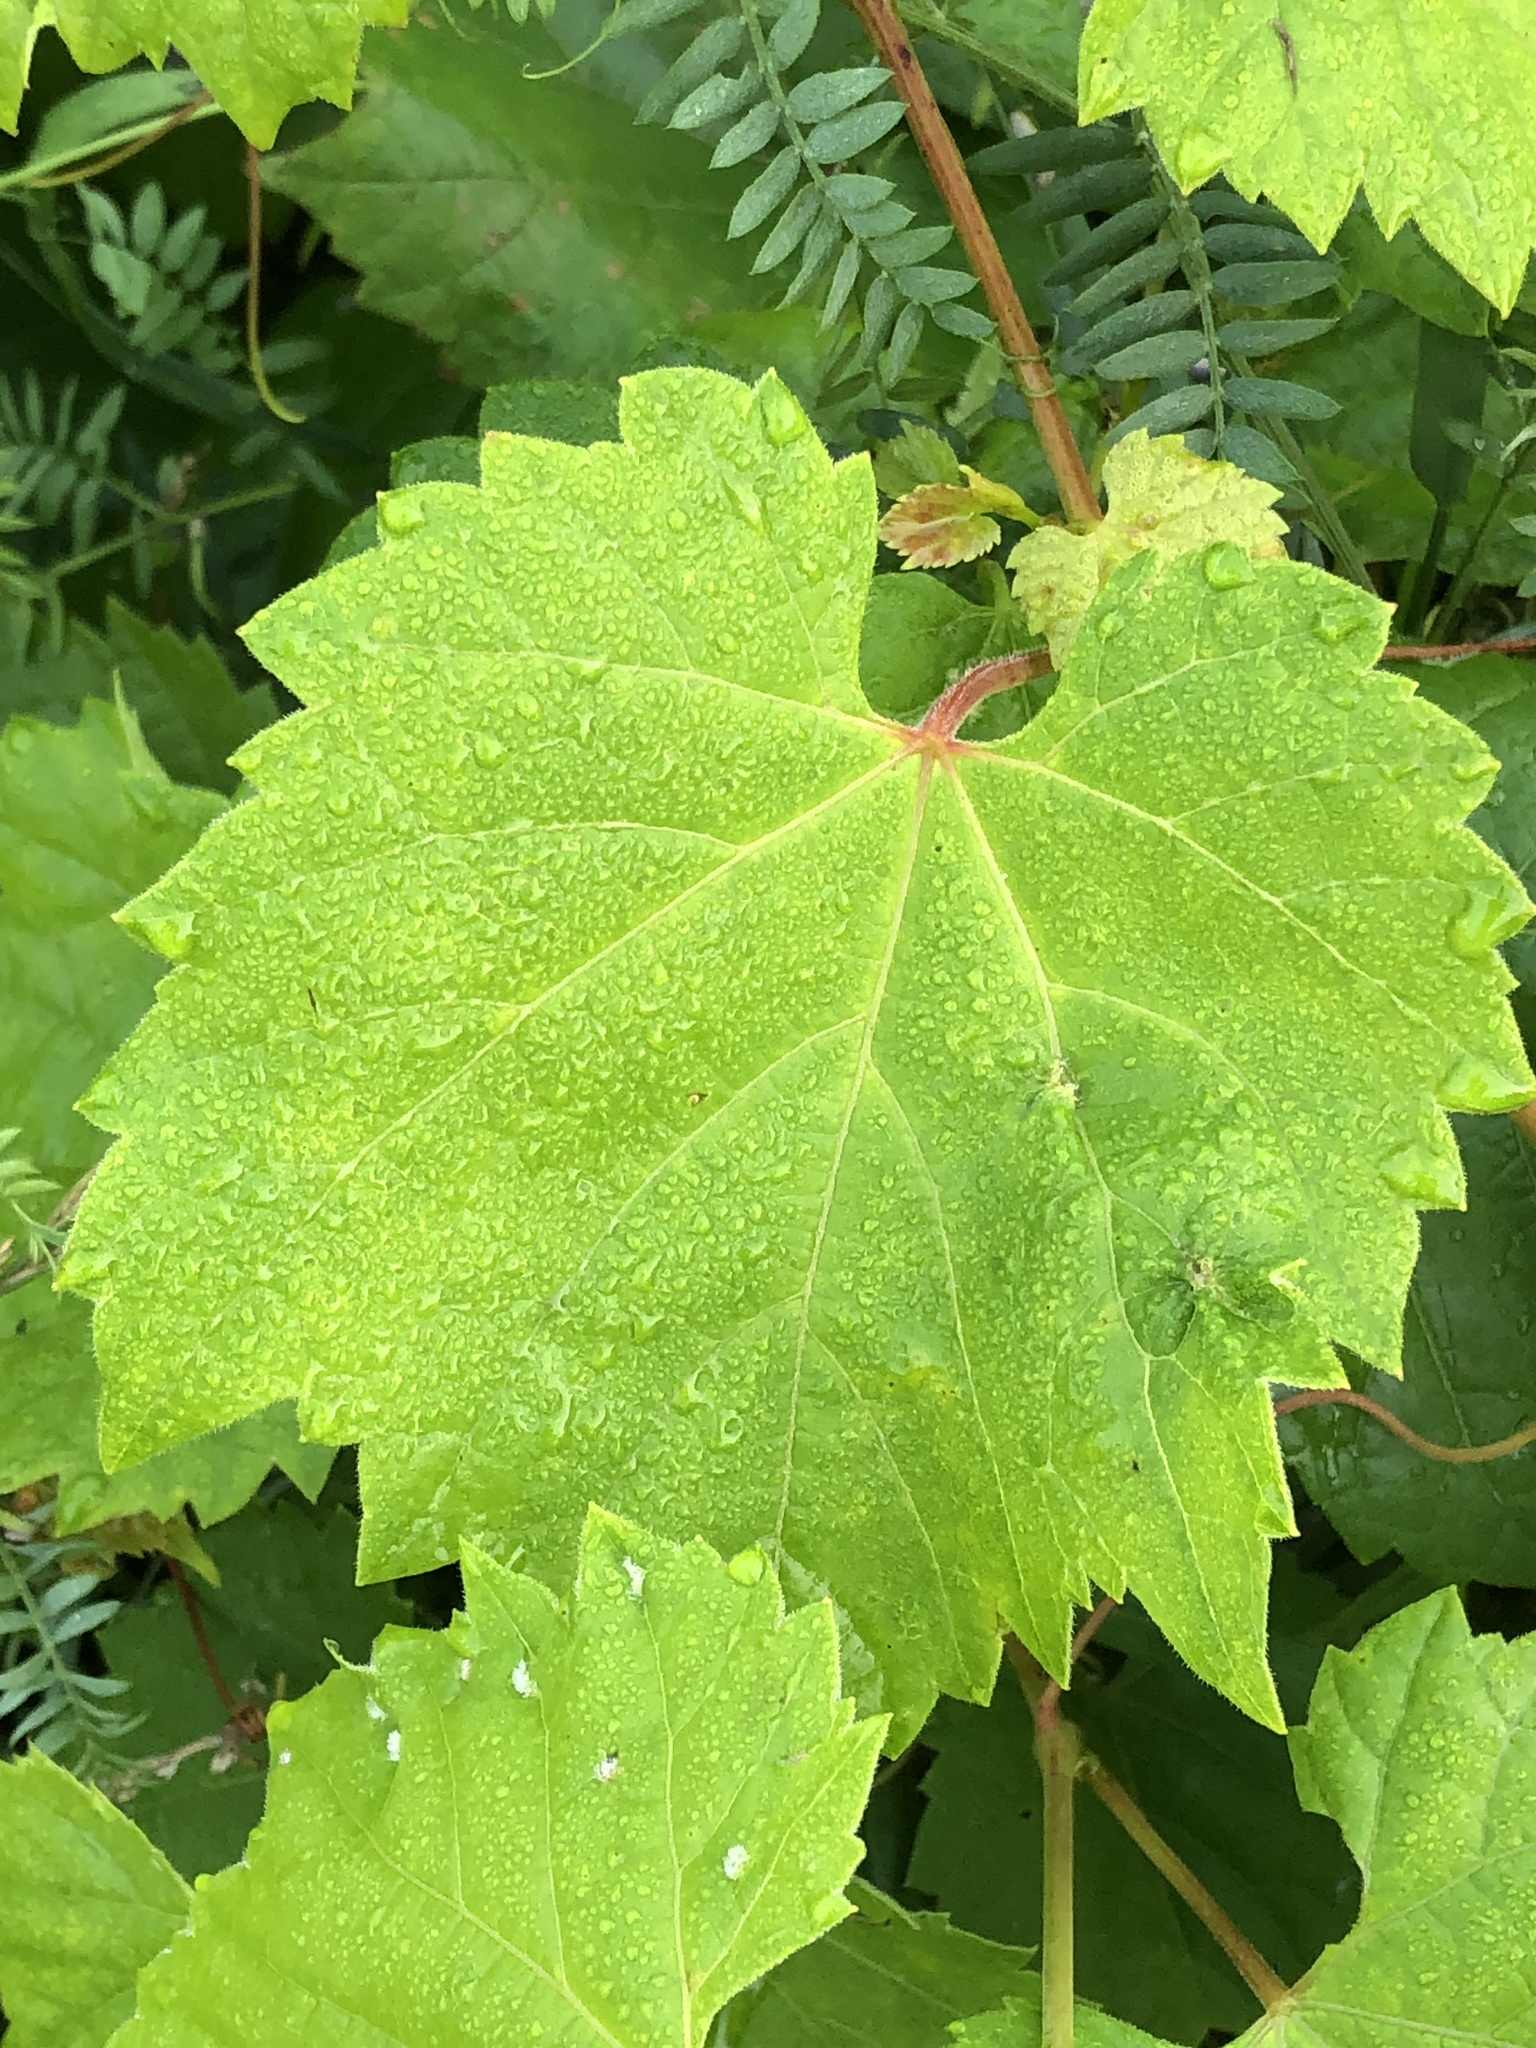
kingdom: Plantae
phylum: Tracheophyta
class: Magnoliopsida
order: Vitales
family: Vitaceae
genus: Vitis
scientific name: Vitis riparia
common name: Frost grape
